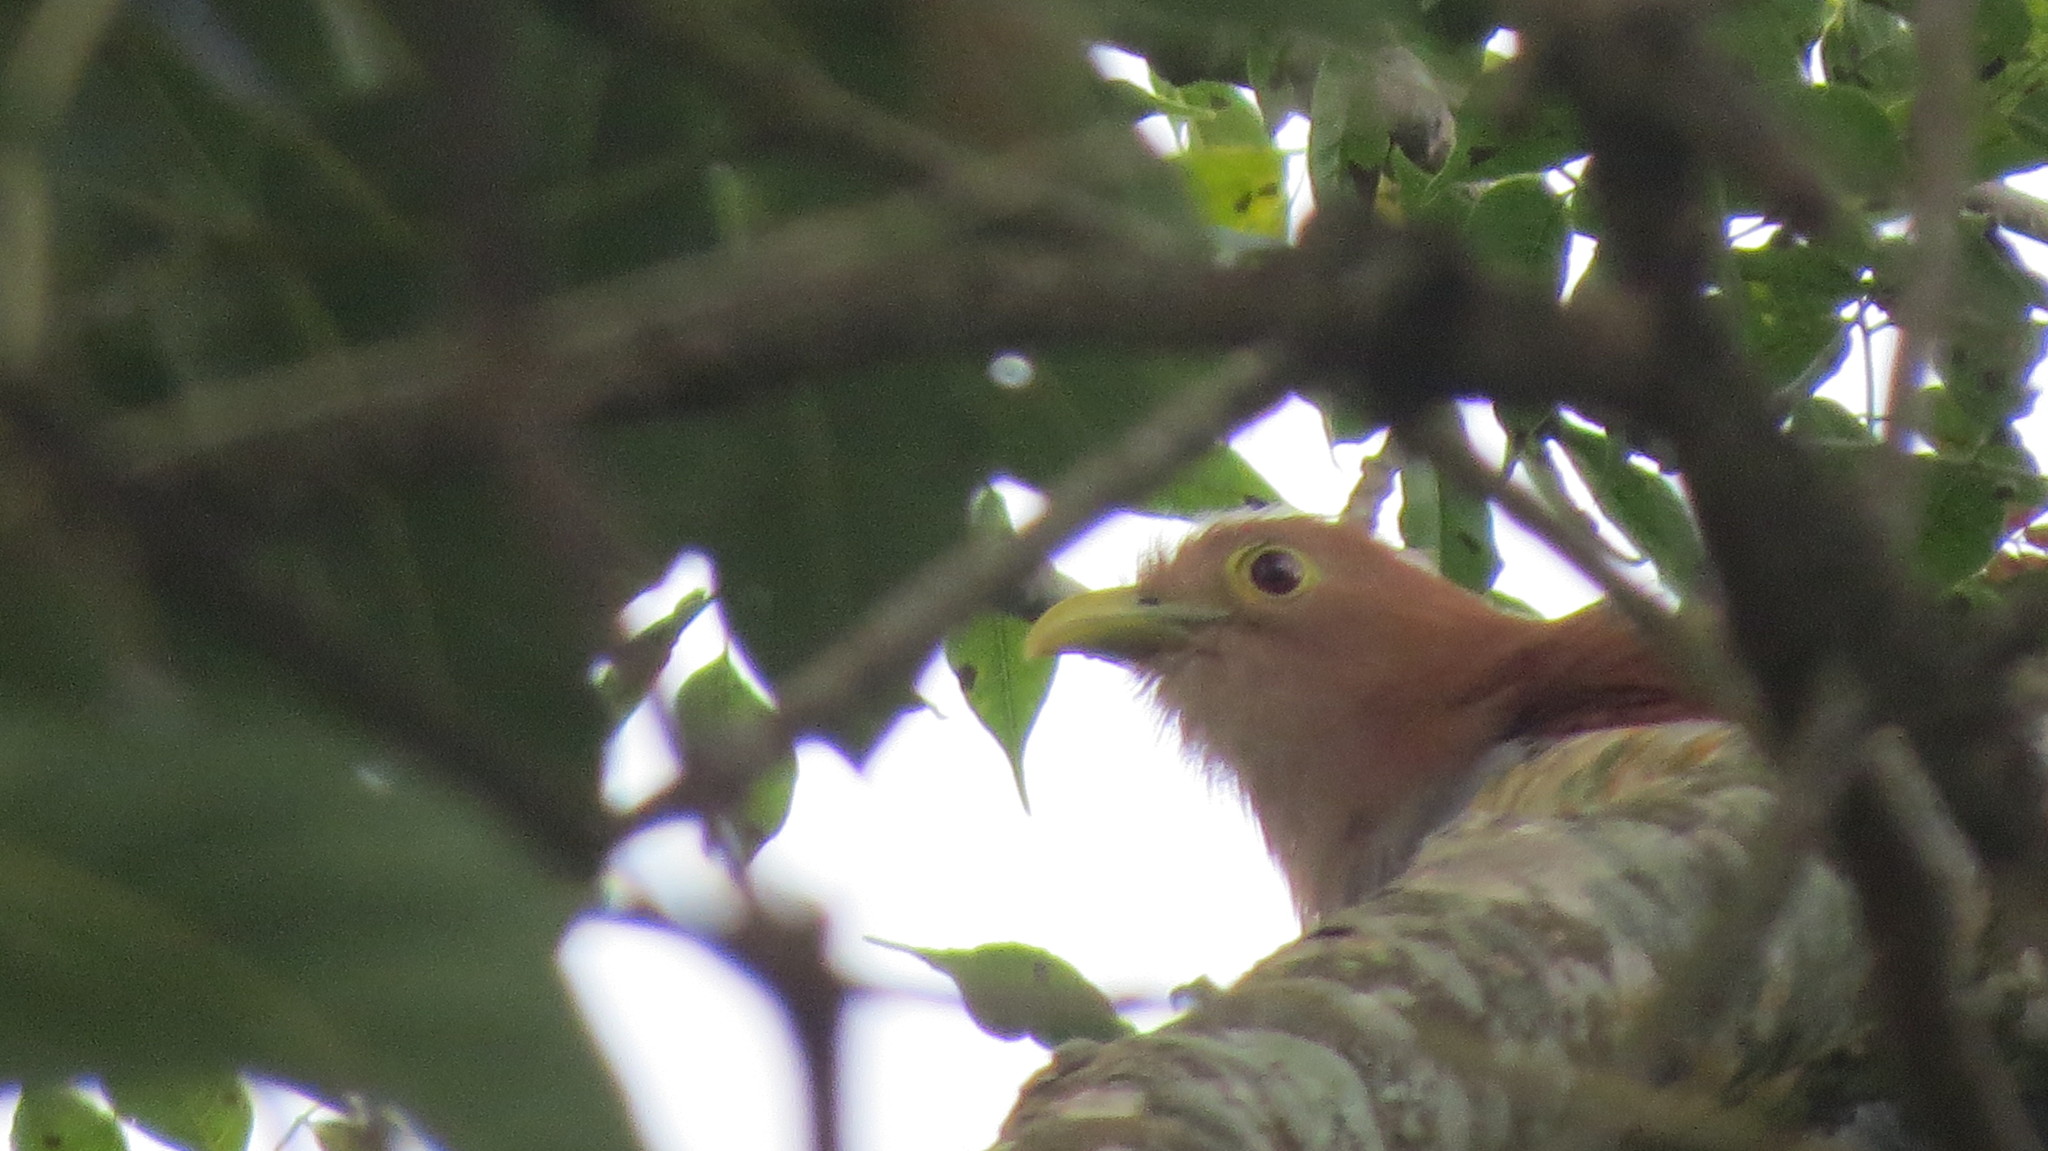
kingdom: Animalia
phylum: Chordata
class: Aves
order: Cuculiformes
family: Cuculidae
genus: Piaya
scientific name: Piaya cayana
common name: Squirrel cuckoo
